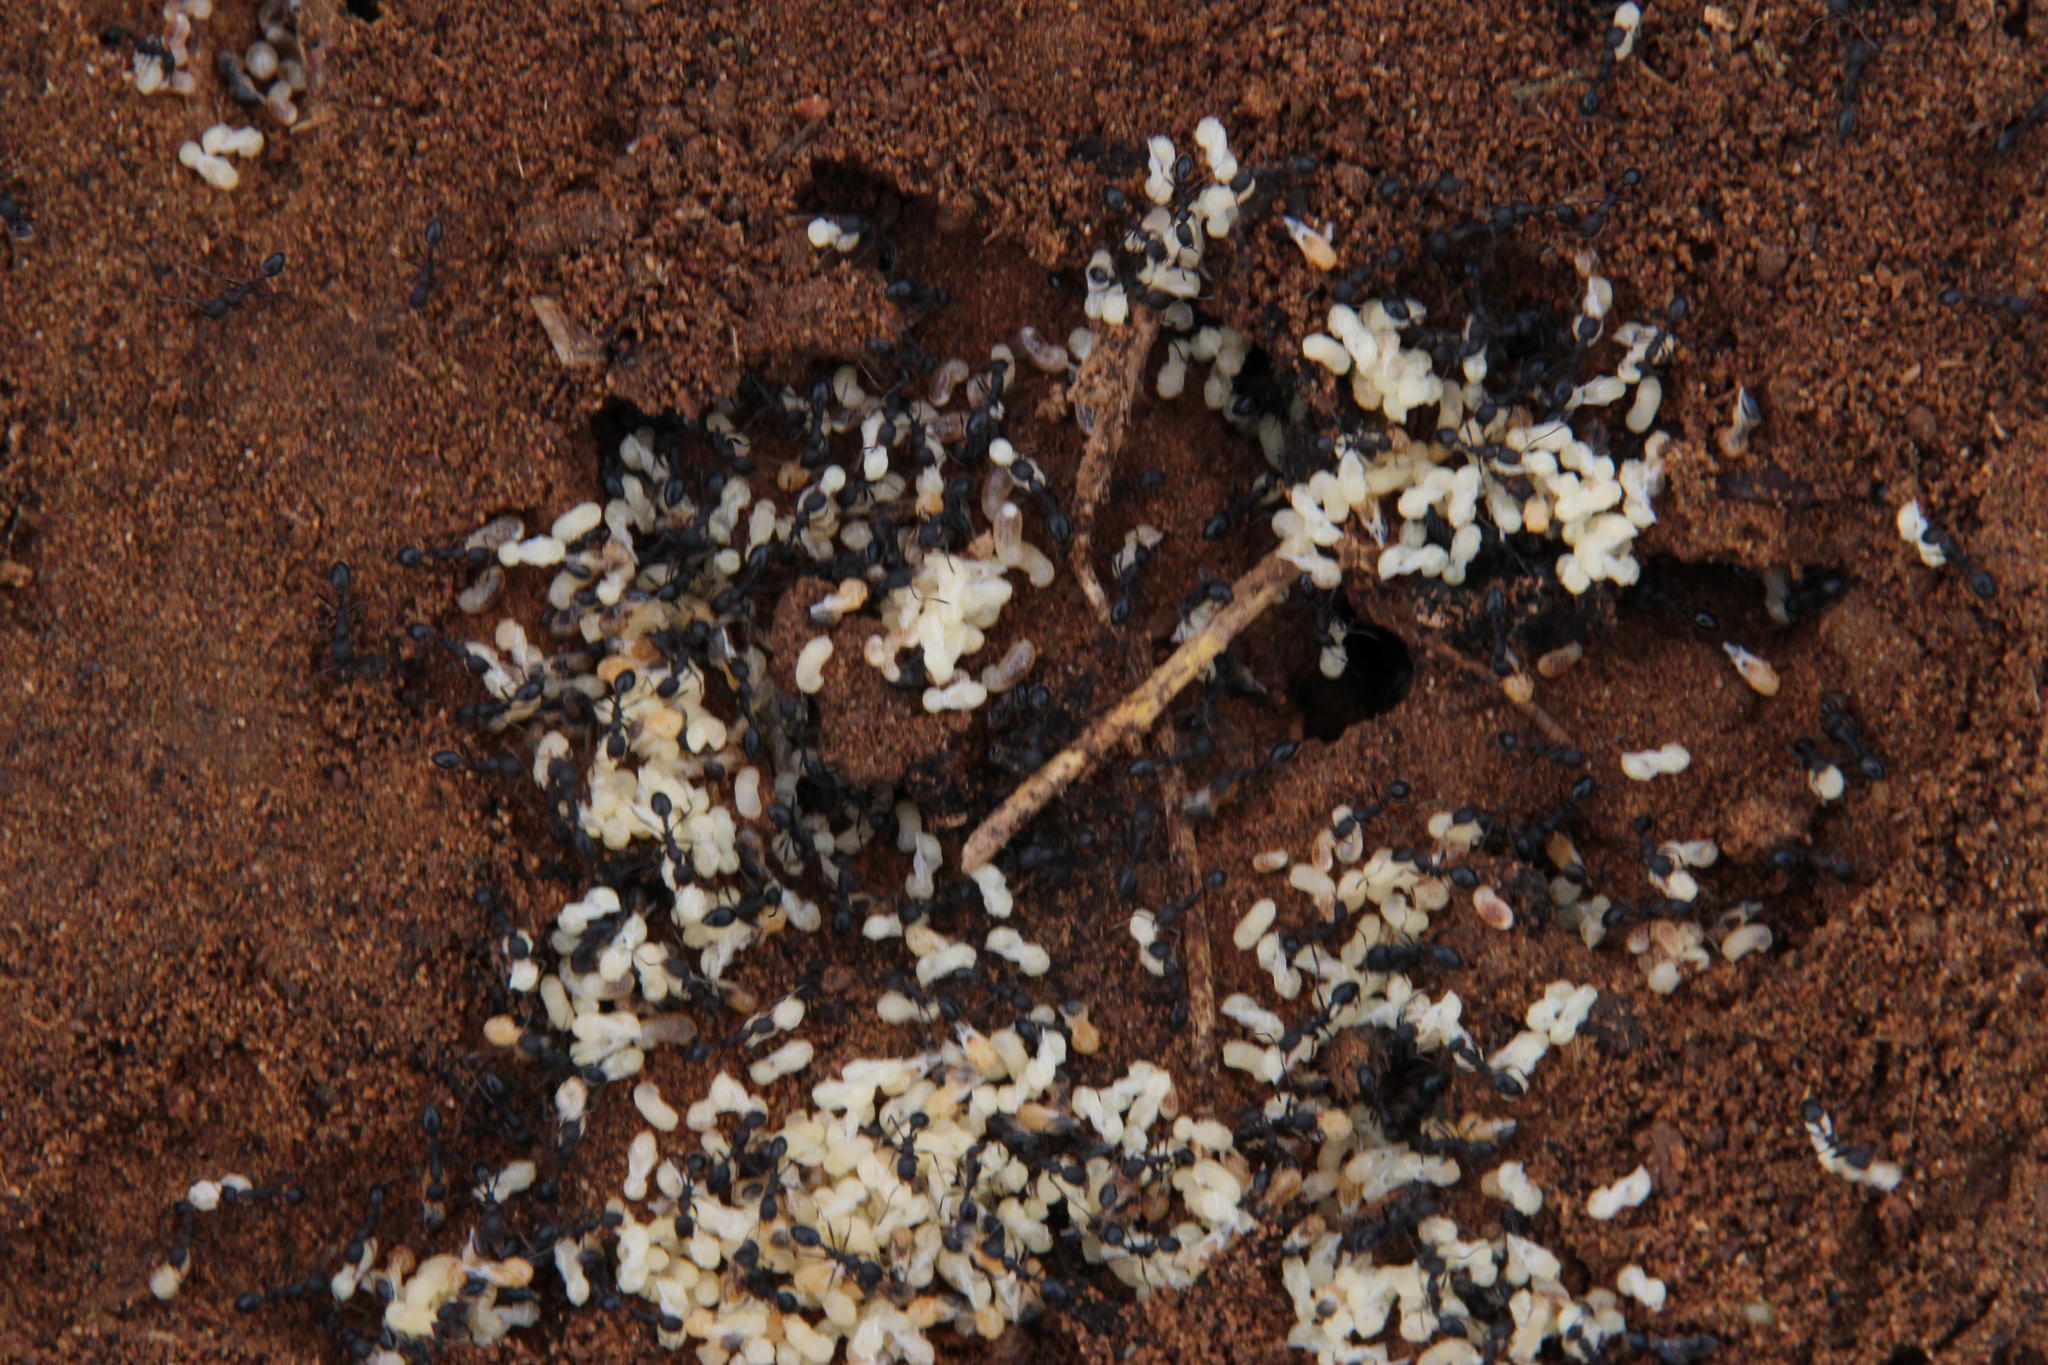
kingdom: Animalia
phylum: Arthropoda
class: Insecta
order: Hymenoptera
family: Formicidae
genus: Monomorium
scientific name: Monomorium junodi
